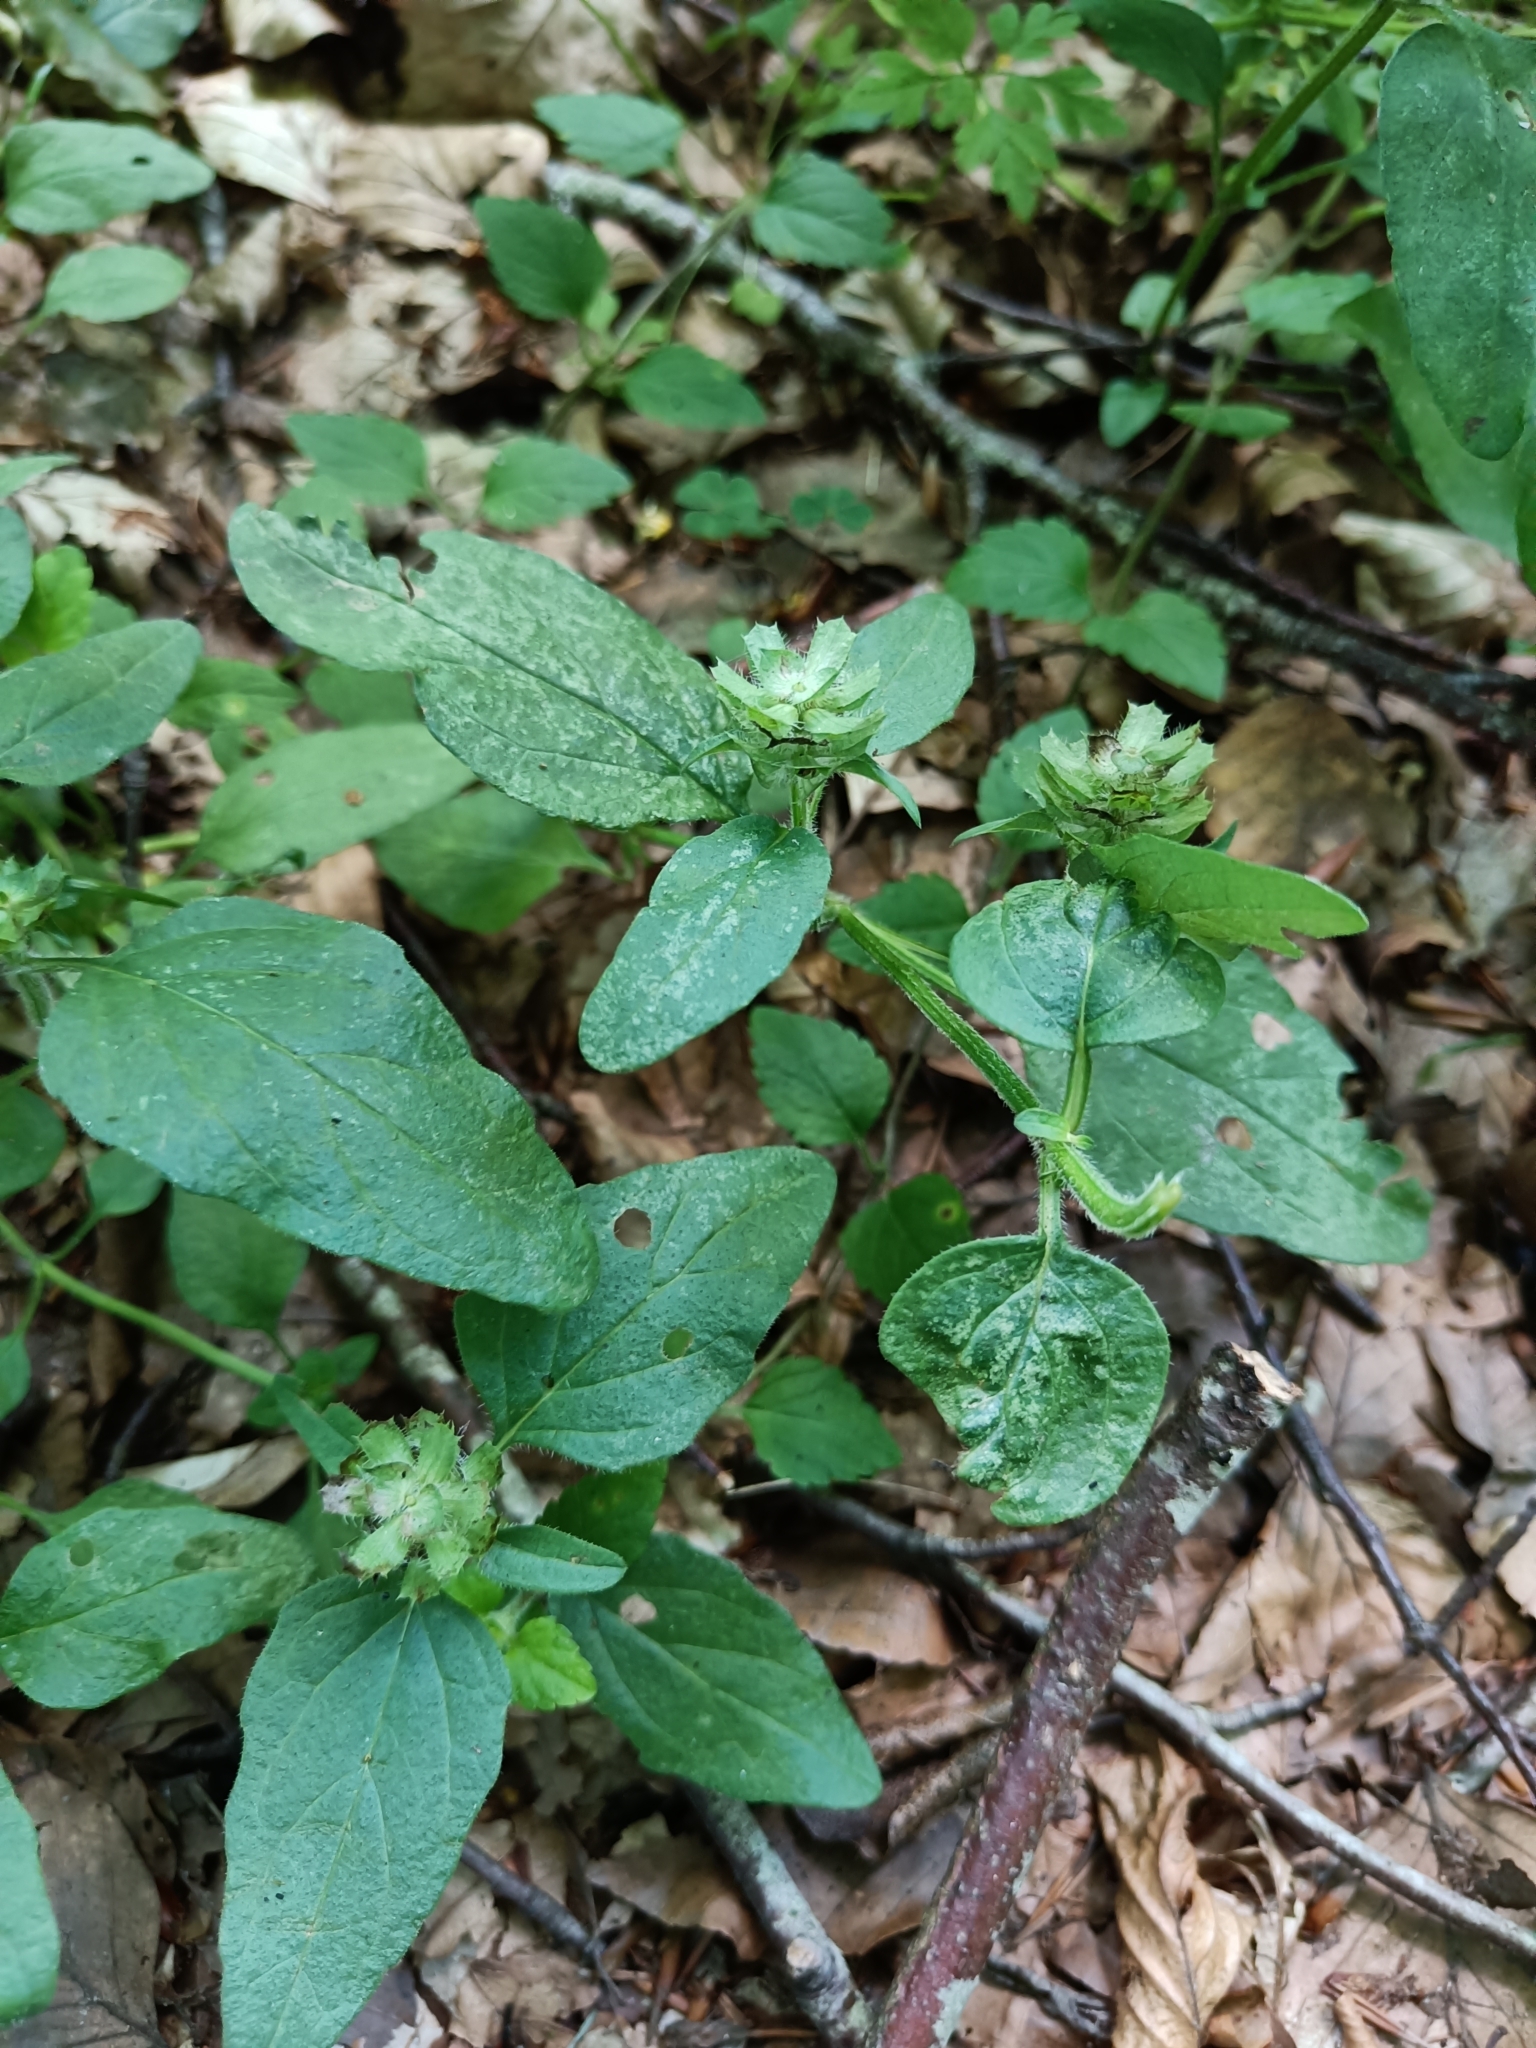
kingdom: Plantae
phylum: Tracheophyta
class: Magnoliopsida
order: Lamiales
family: Lamiaceae
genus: Prunella
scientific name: Prunella vulgaris
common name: Heal-all
